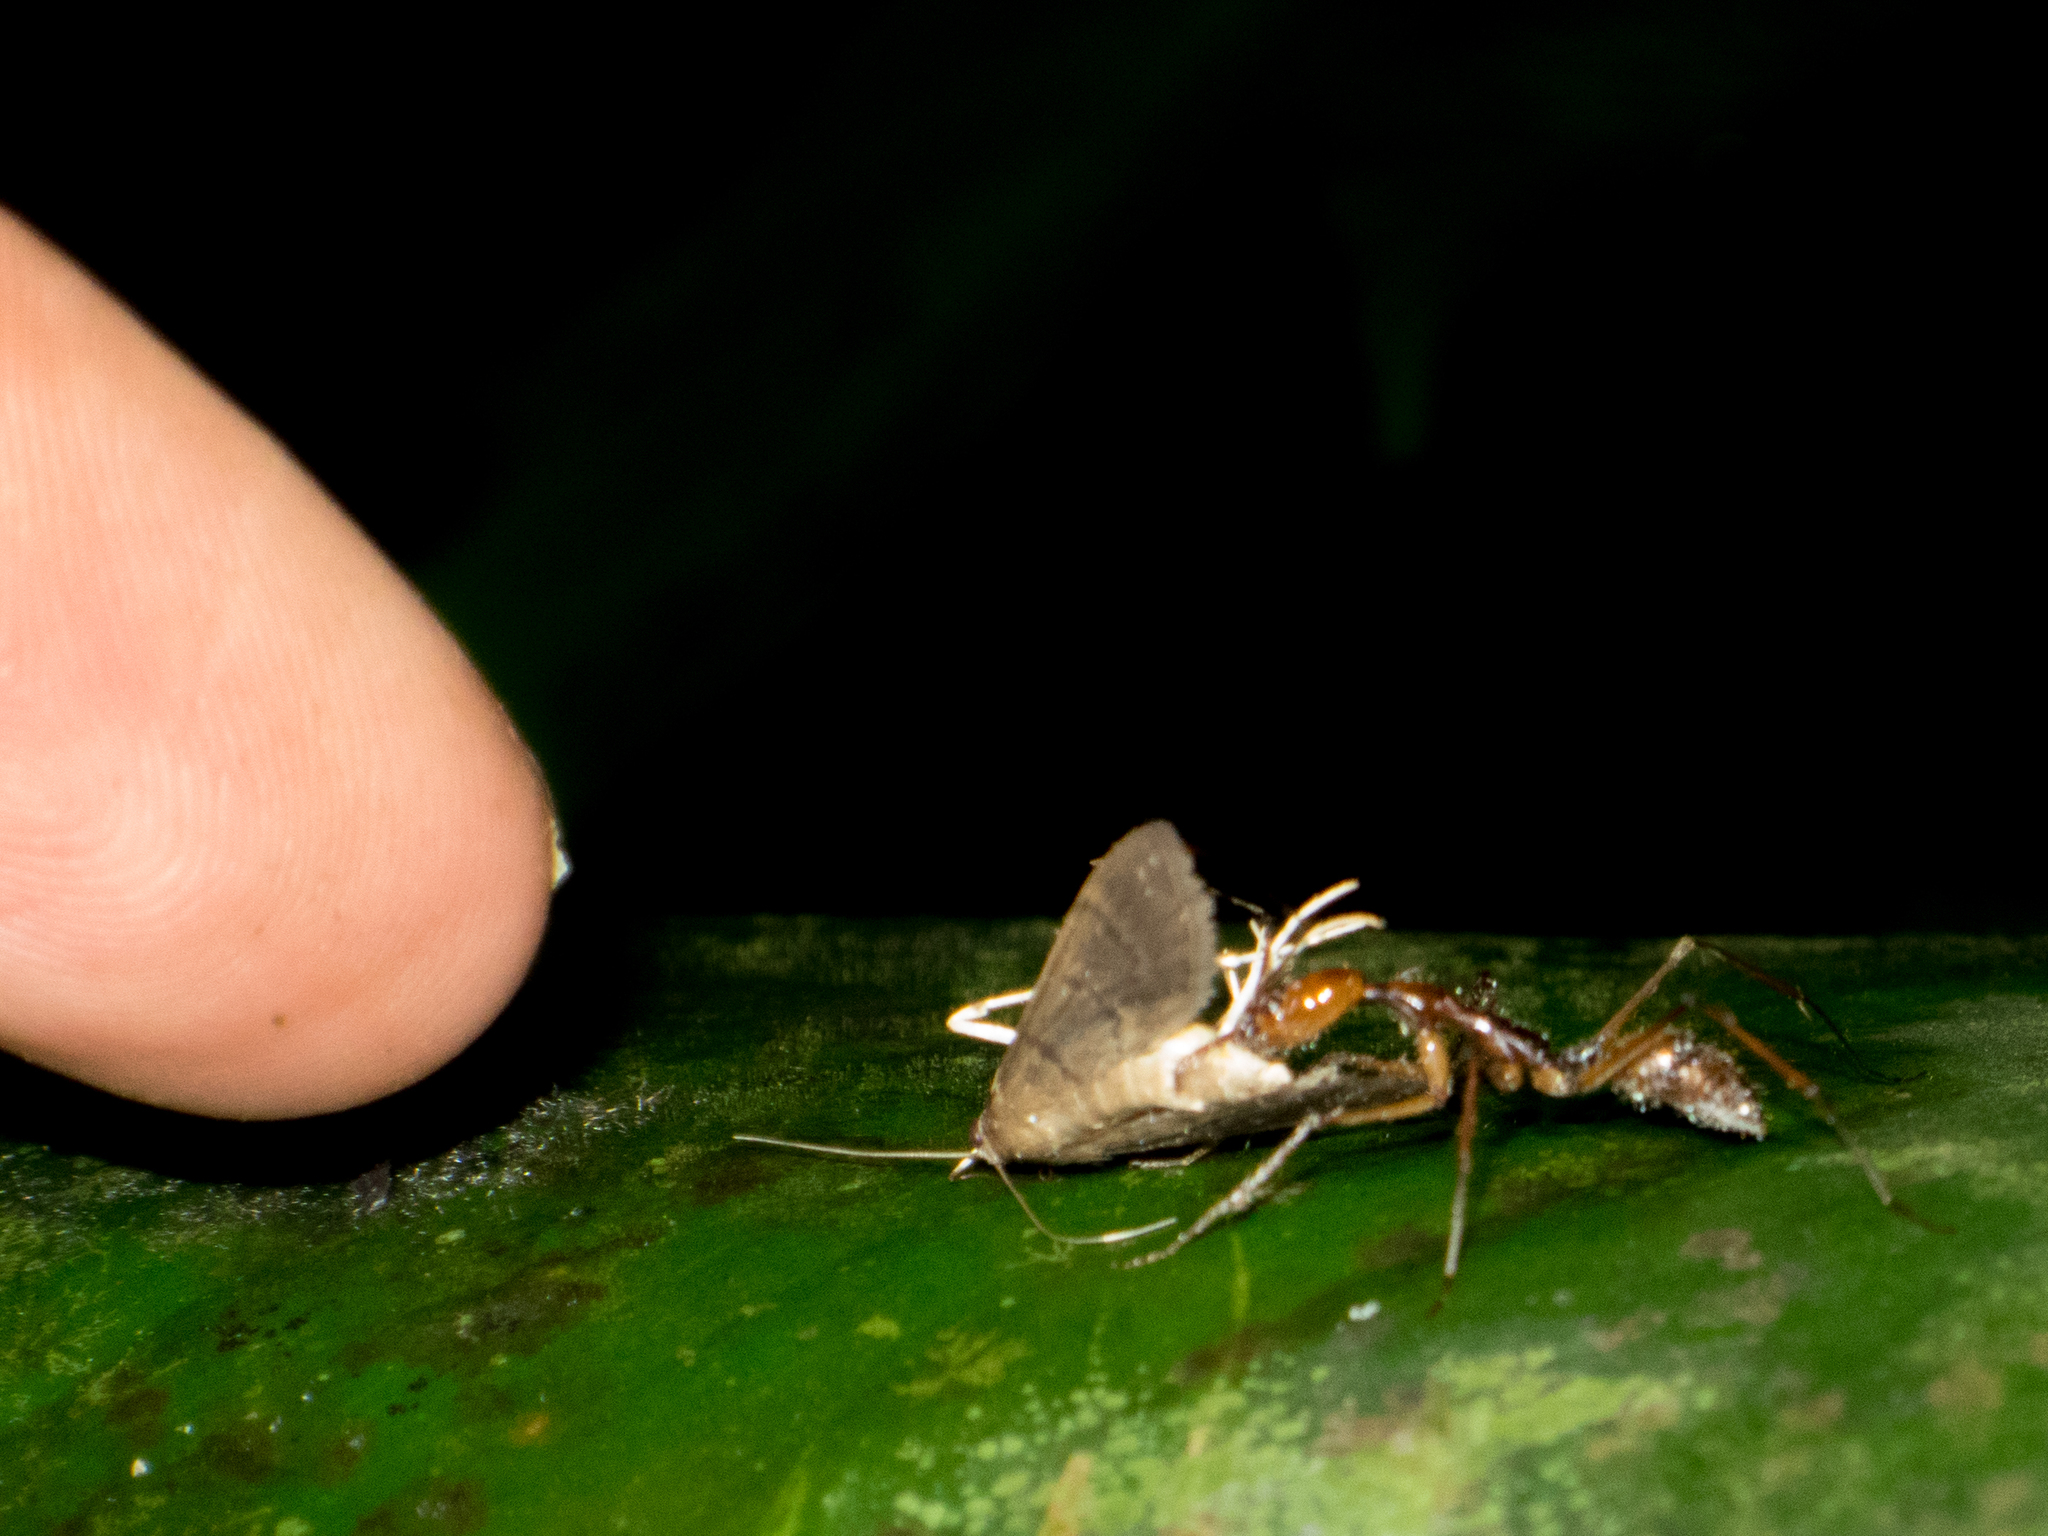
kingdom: Animalia
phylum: Arthropoda
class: Insecta
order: Hymenoptera
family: Formicidae
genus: Odontomachus
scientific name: Odontomachus hastatus
